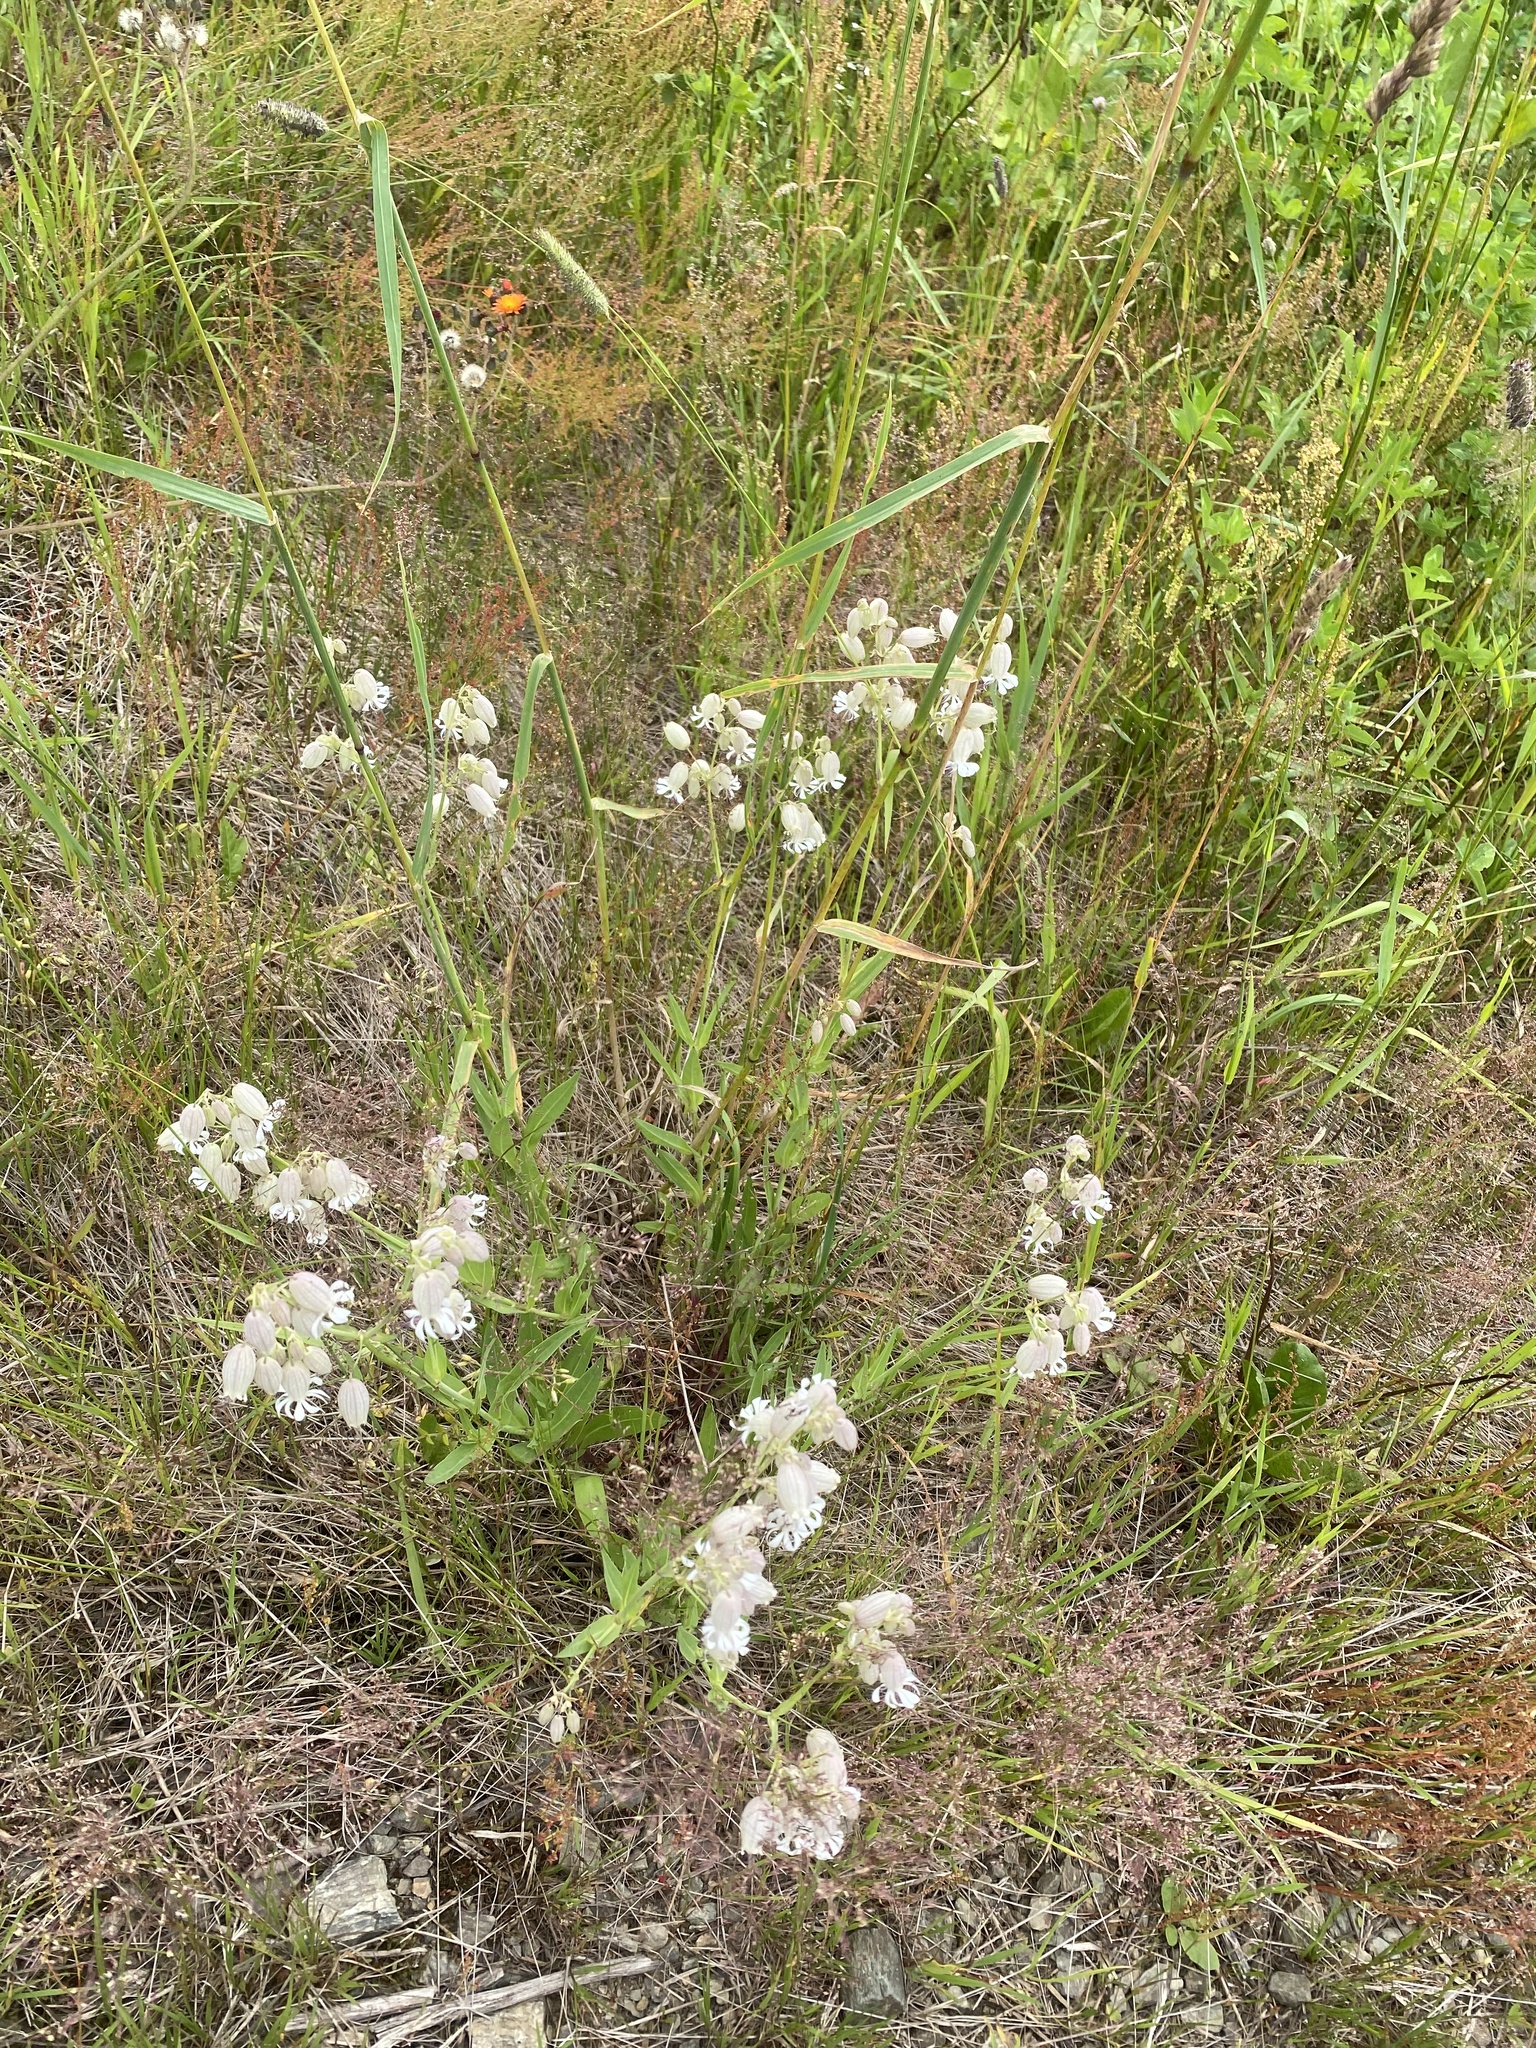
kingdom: Plantae
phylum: Tracheophyta
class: Magnoliopsida
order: Caryophyllales
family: Caryophyllaceae
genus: Silene
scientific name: Silene vulgaris
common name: Bladder campion
